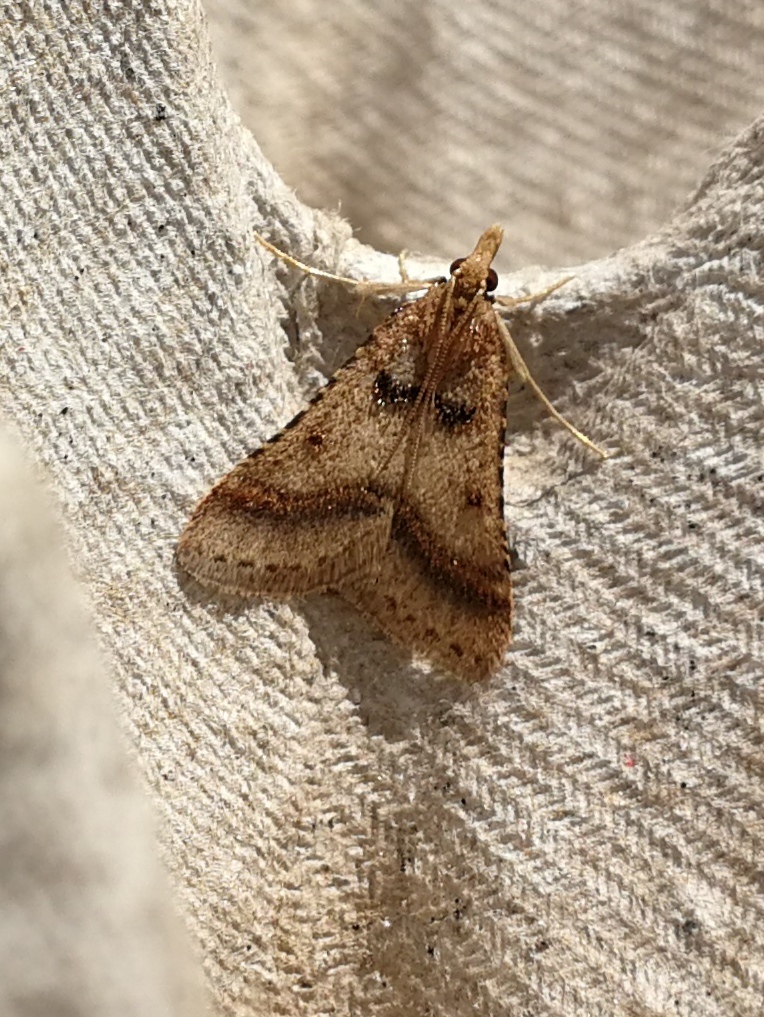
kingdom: Animalia
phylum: Arthropoda
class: Insecta
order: Lepidoptera
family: Pyralidae
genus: Stemmatophora
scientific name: Stemmatophora brunnealis
